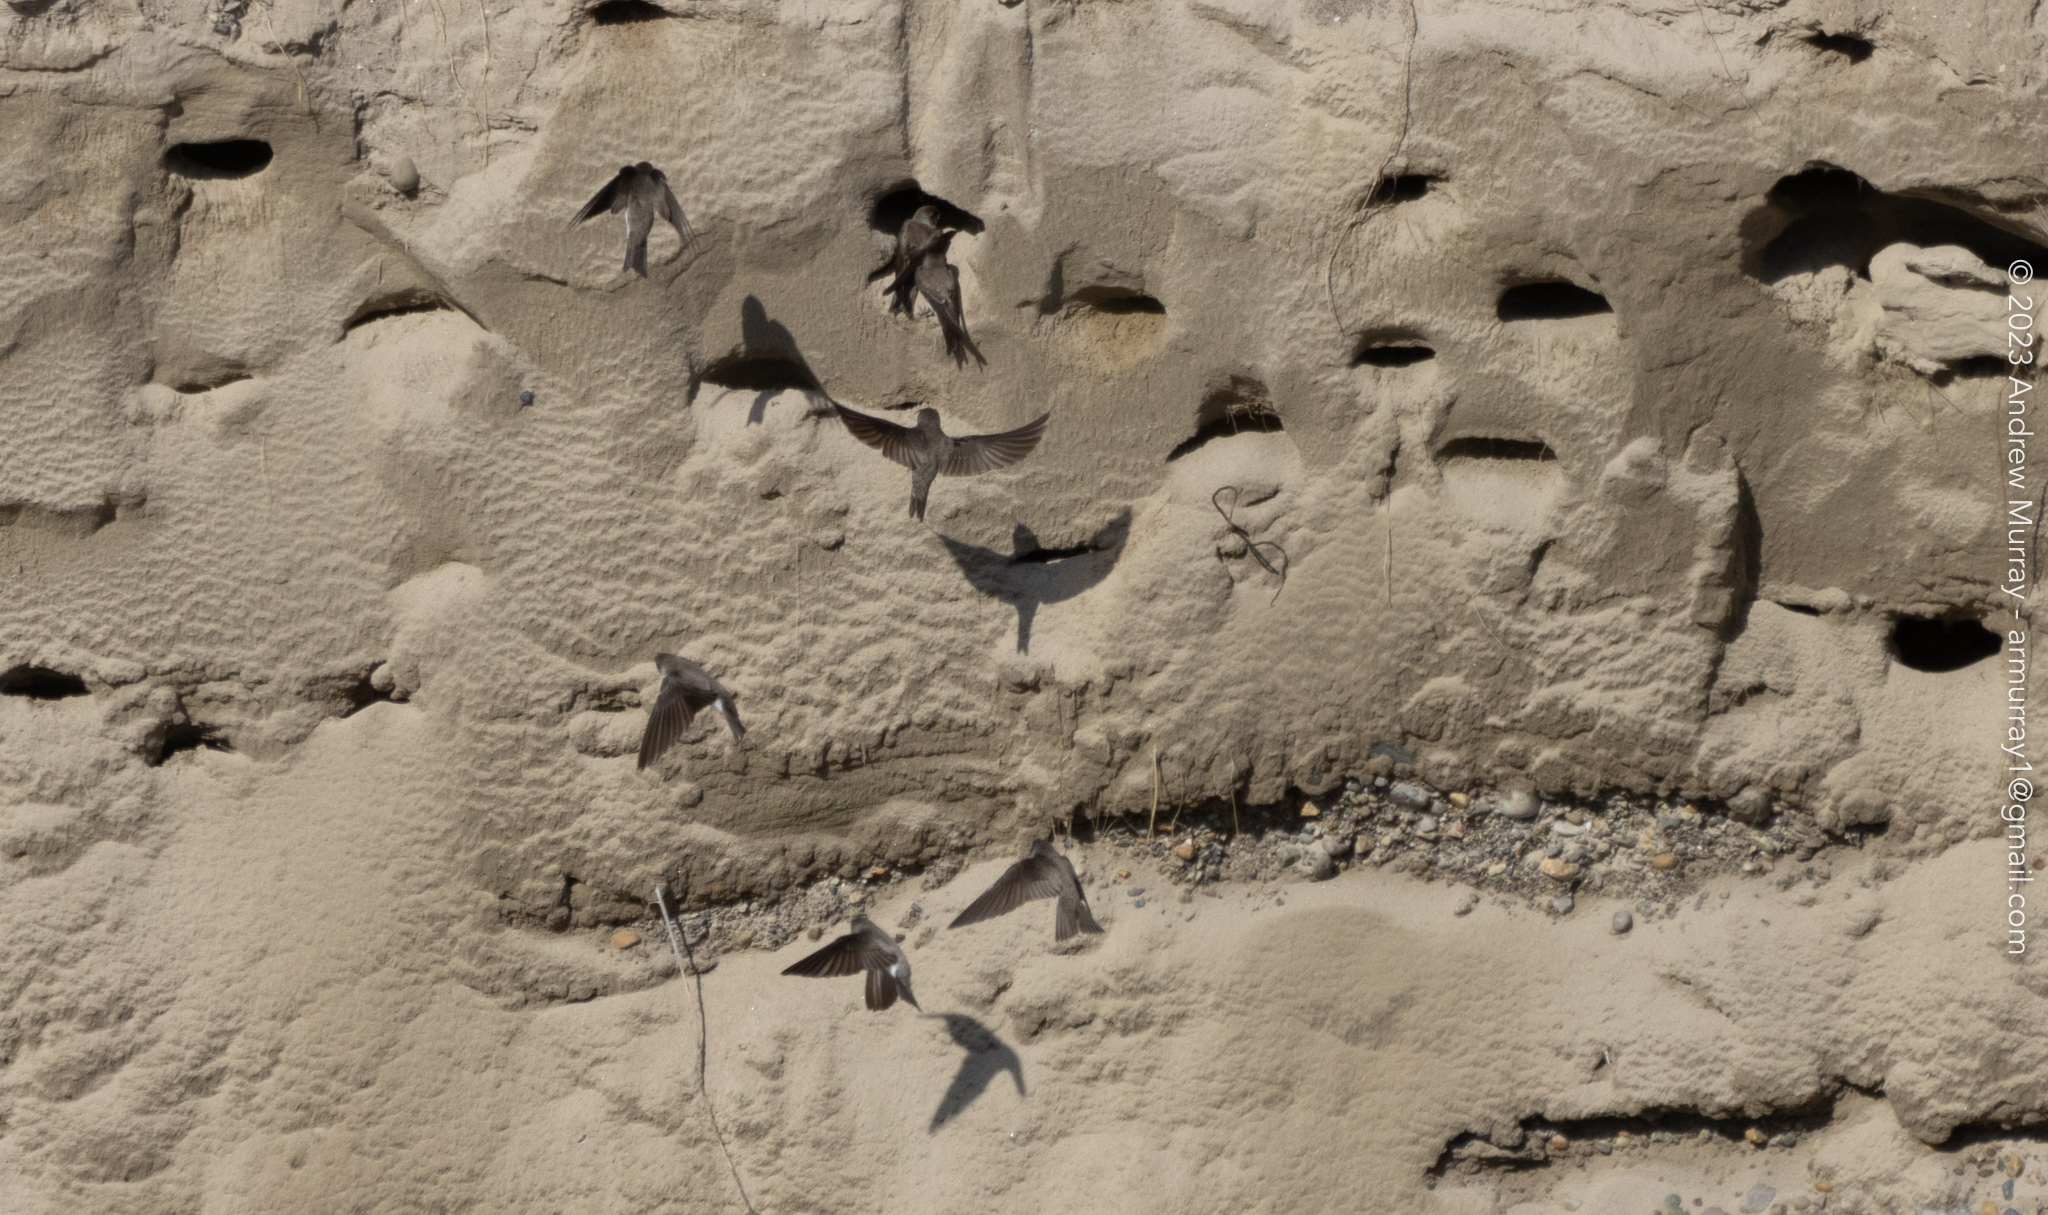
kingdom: Animalia
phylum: Chordata
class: Aves
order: Passeriformes
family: Hirundinidae
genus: Riparia
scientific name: Riparia riparia
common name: Sand martin
